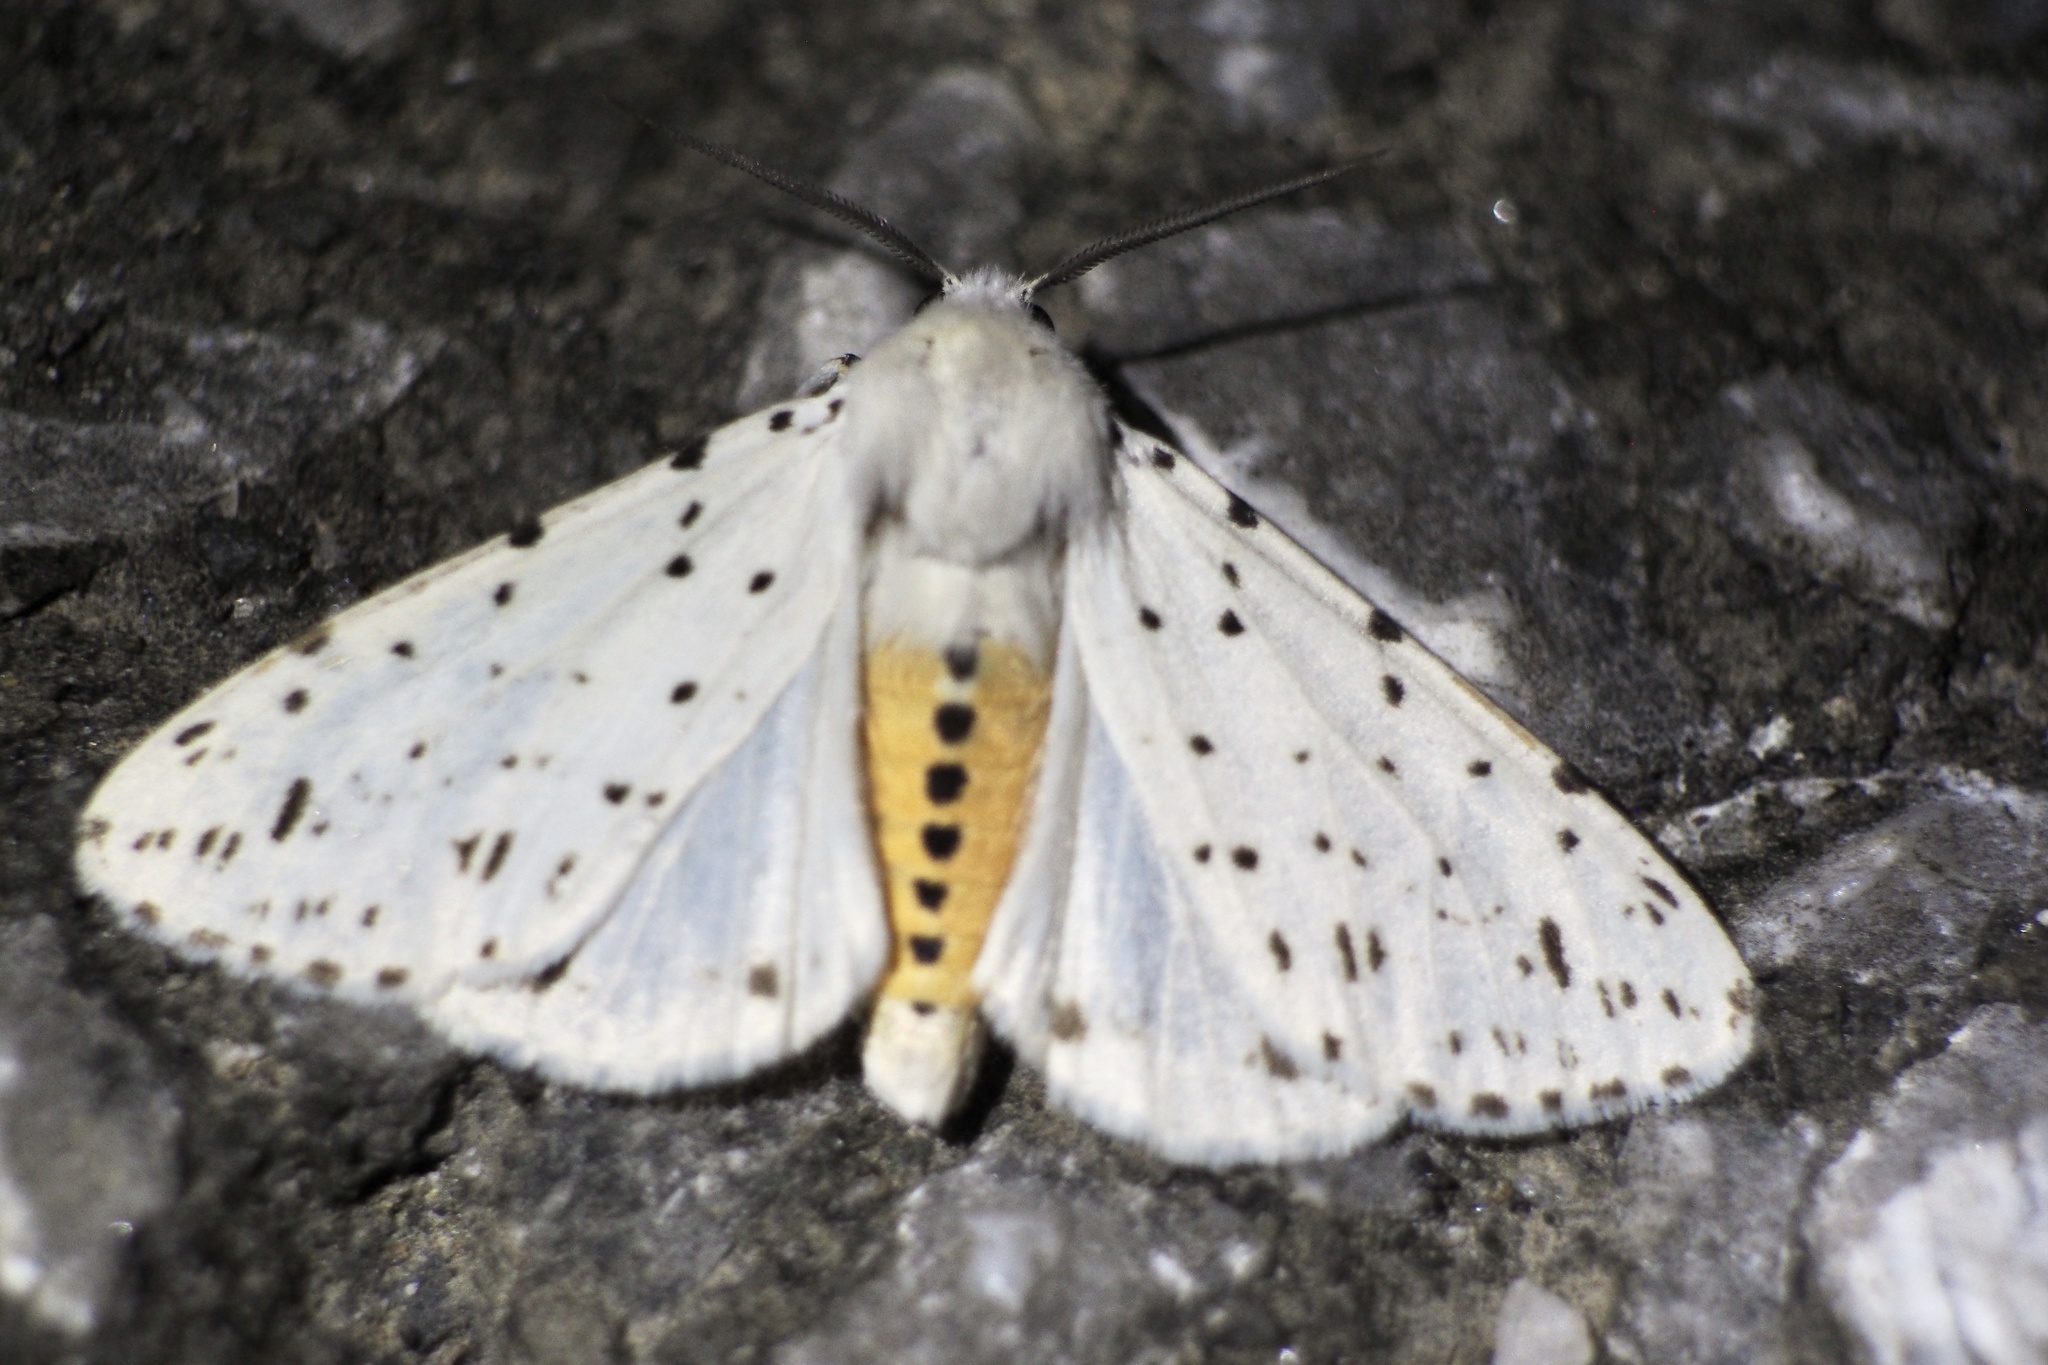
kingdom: Animalia
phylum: Arthropoda
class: Insecta
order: Lepidoptera
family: Erebidae
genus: Spilosoma
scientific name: Spilosoma lubricipeda
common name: White ermine
